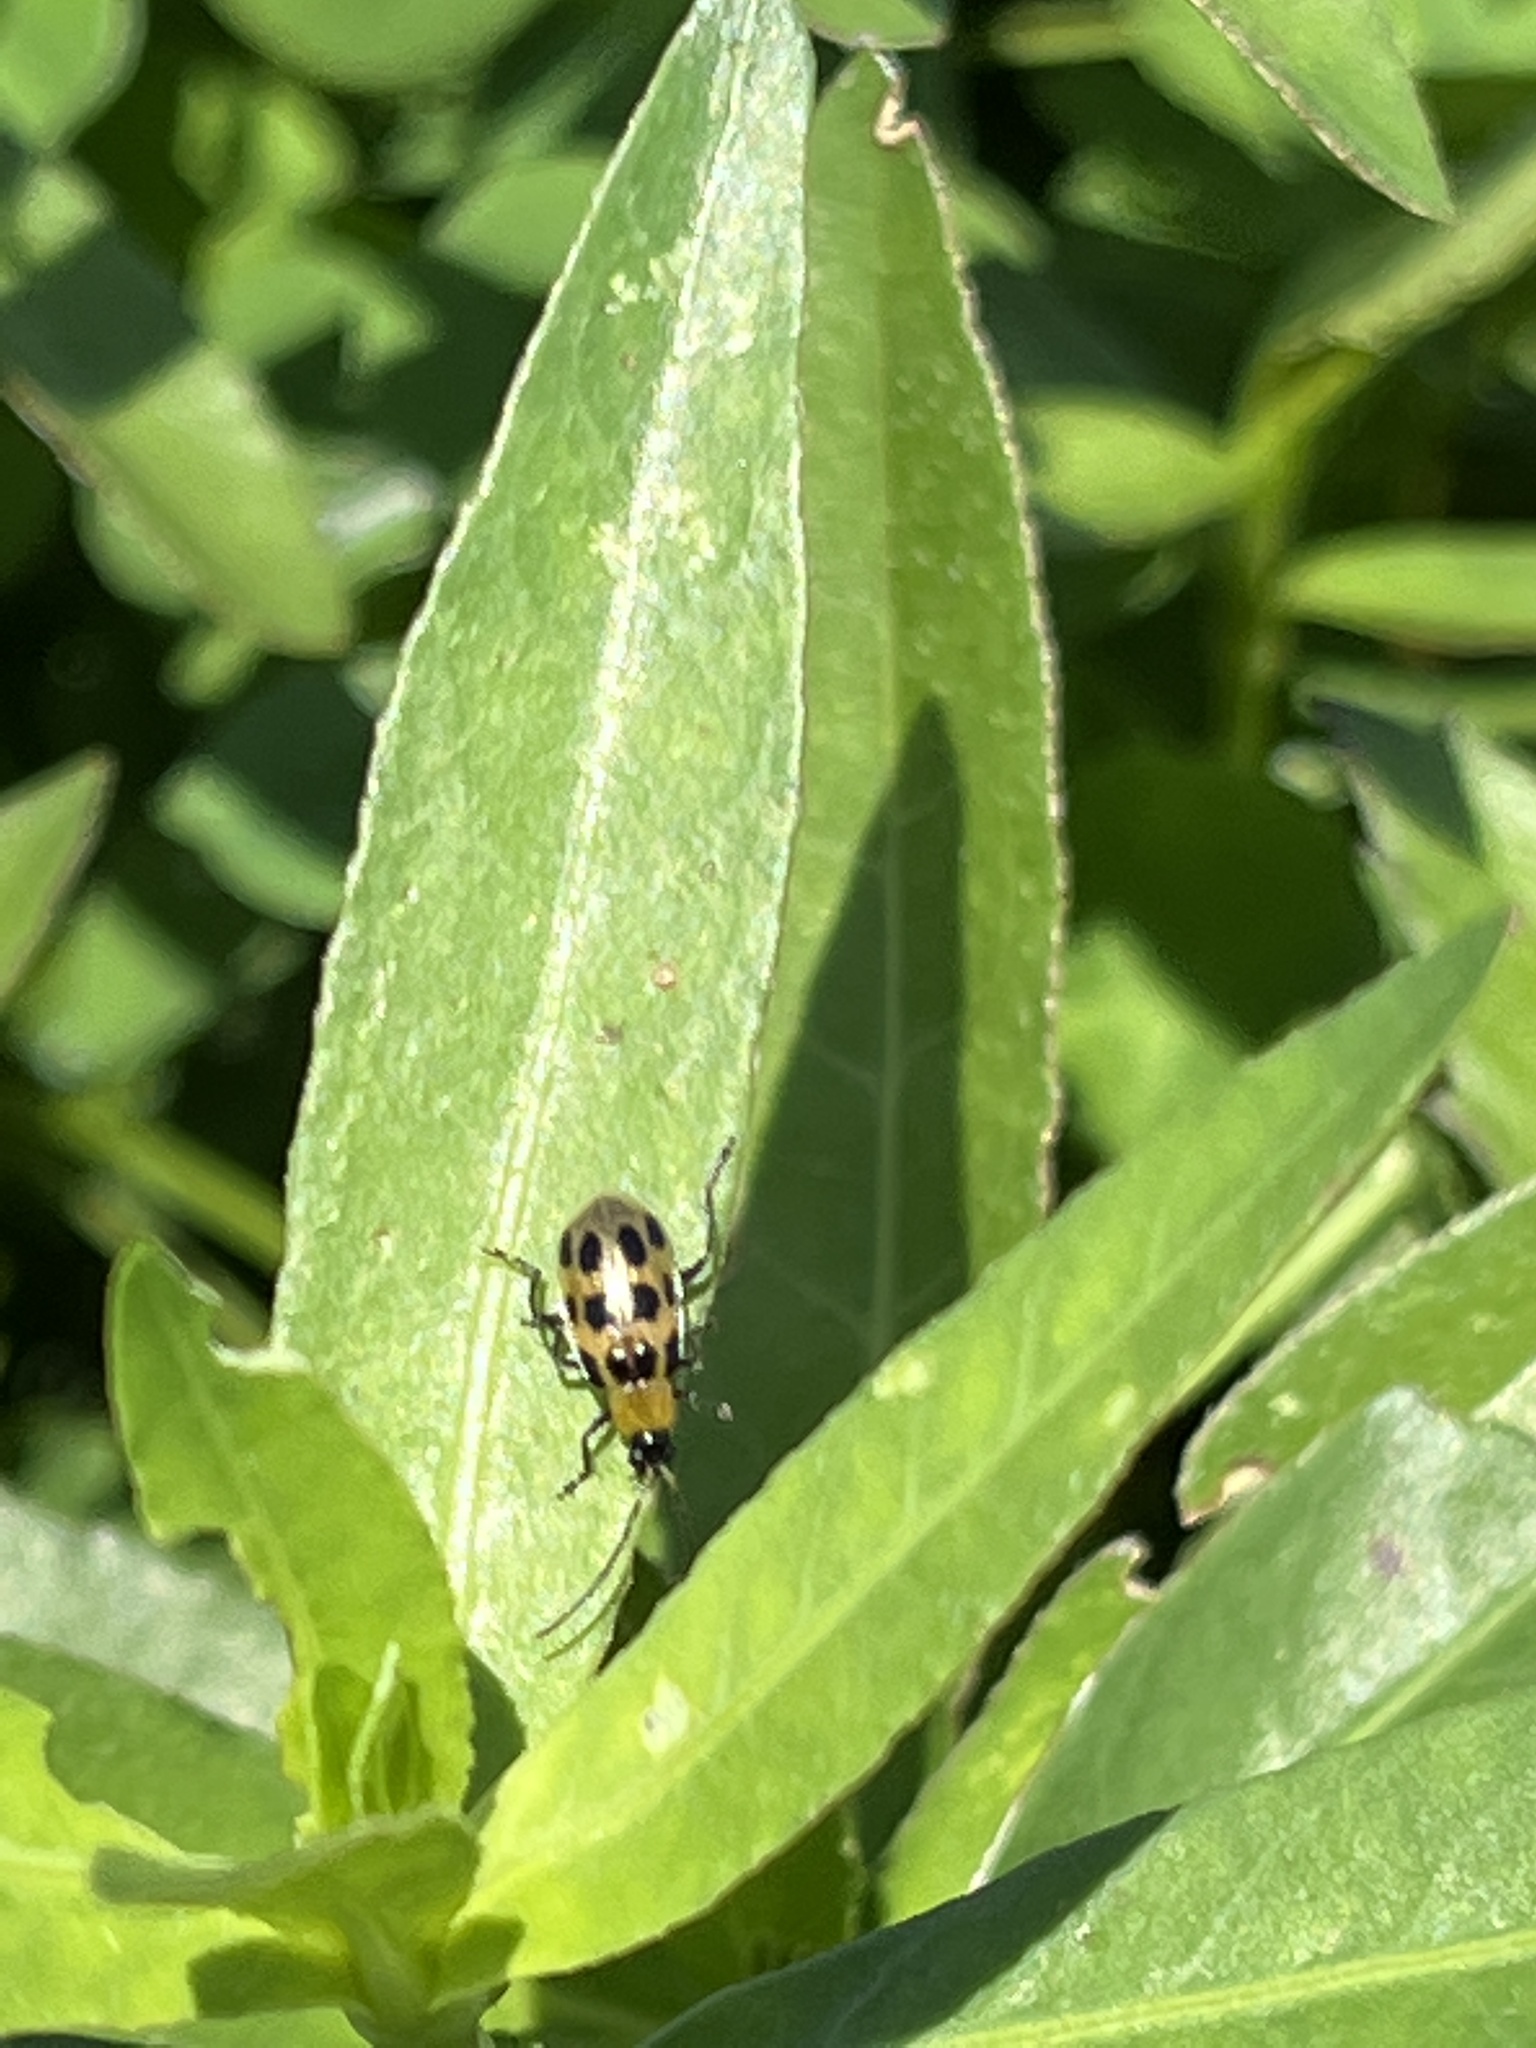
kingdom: Animalia
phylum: Arthropoda
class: Insecta
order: Coleoptera
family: Chrysomelidae
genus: Diabrotica
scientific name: Diabrotica undecimpunctata
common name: Spotted cucumber beetle
